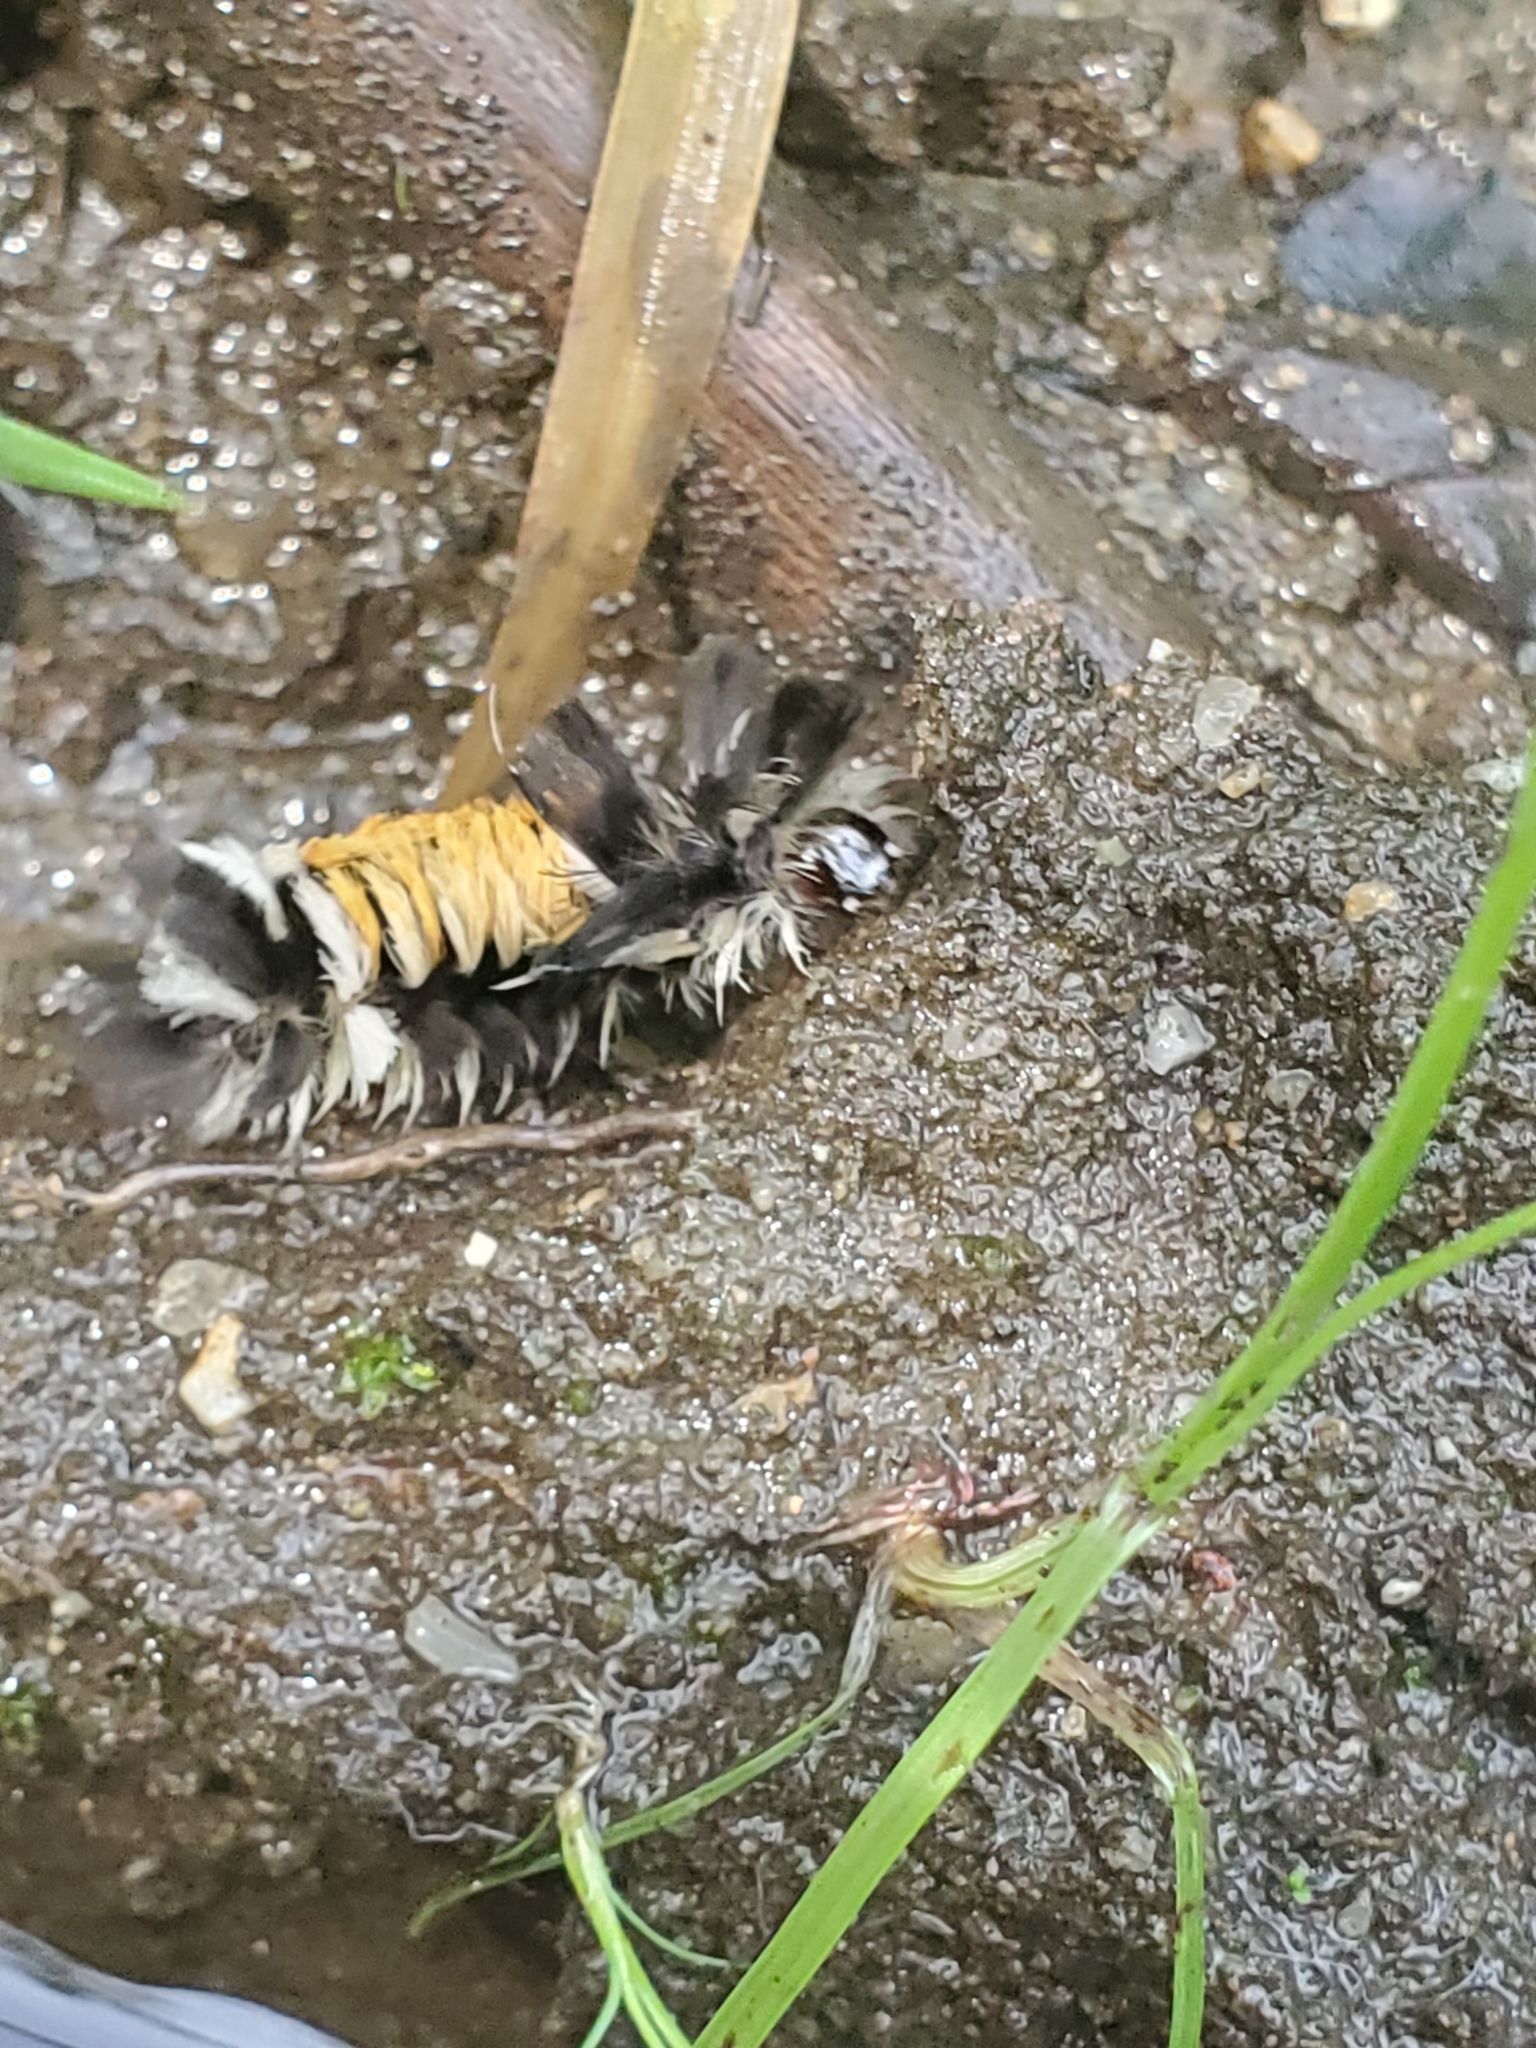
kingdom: Animalia
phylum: Arthropoda
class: Insecta
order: Lepidoptera
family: Erebidae
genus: Euchaetes
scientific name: Euchaetes egle
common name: Milkweed tussock moth
